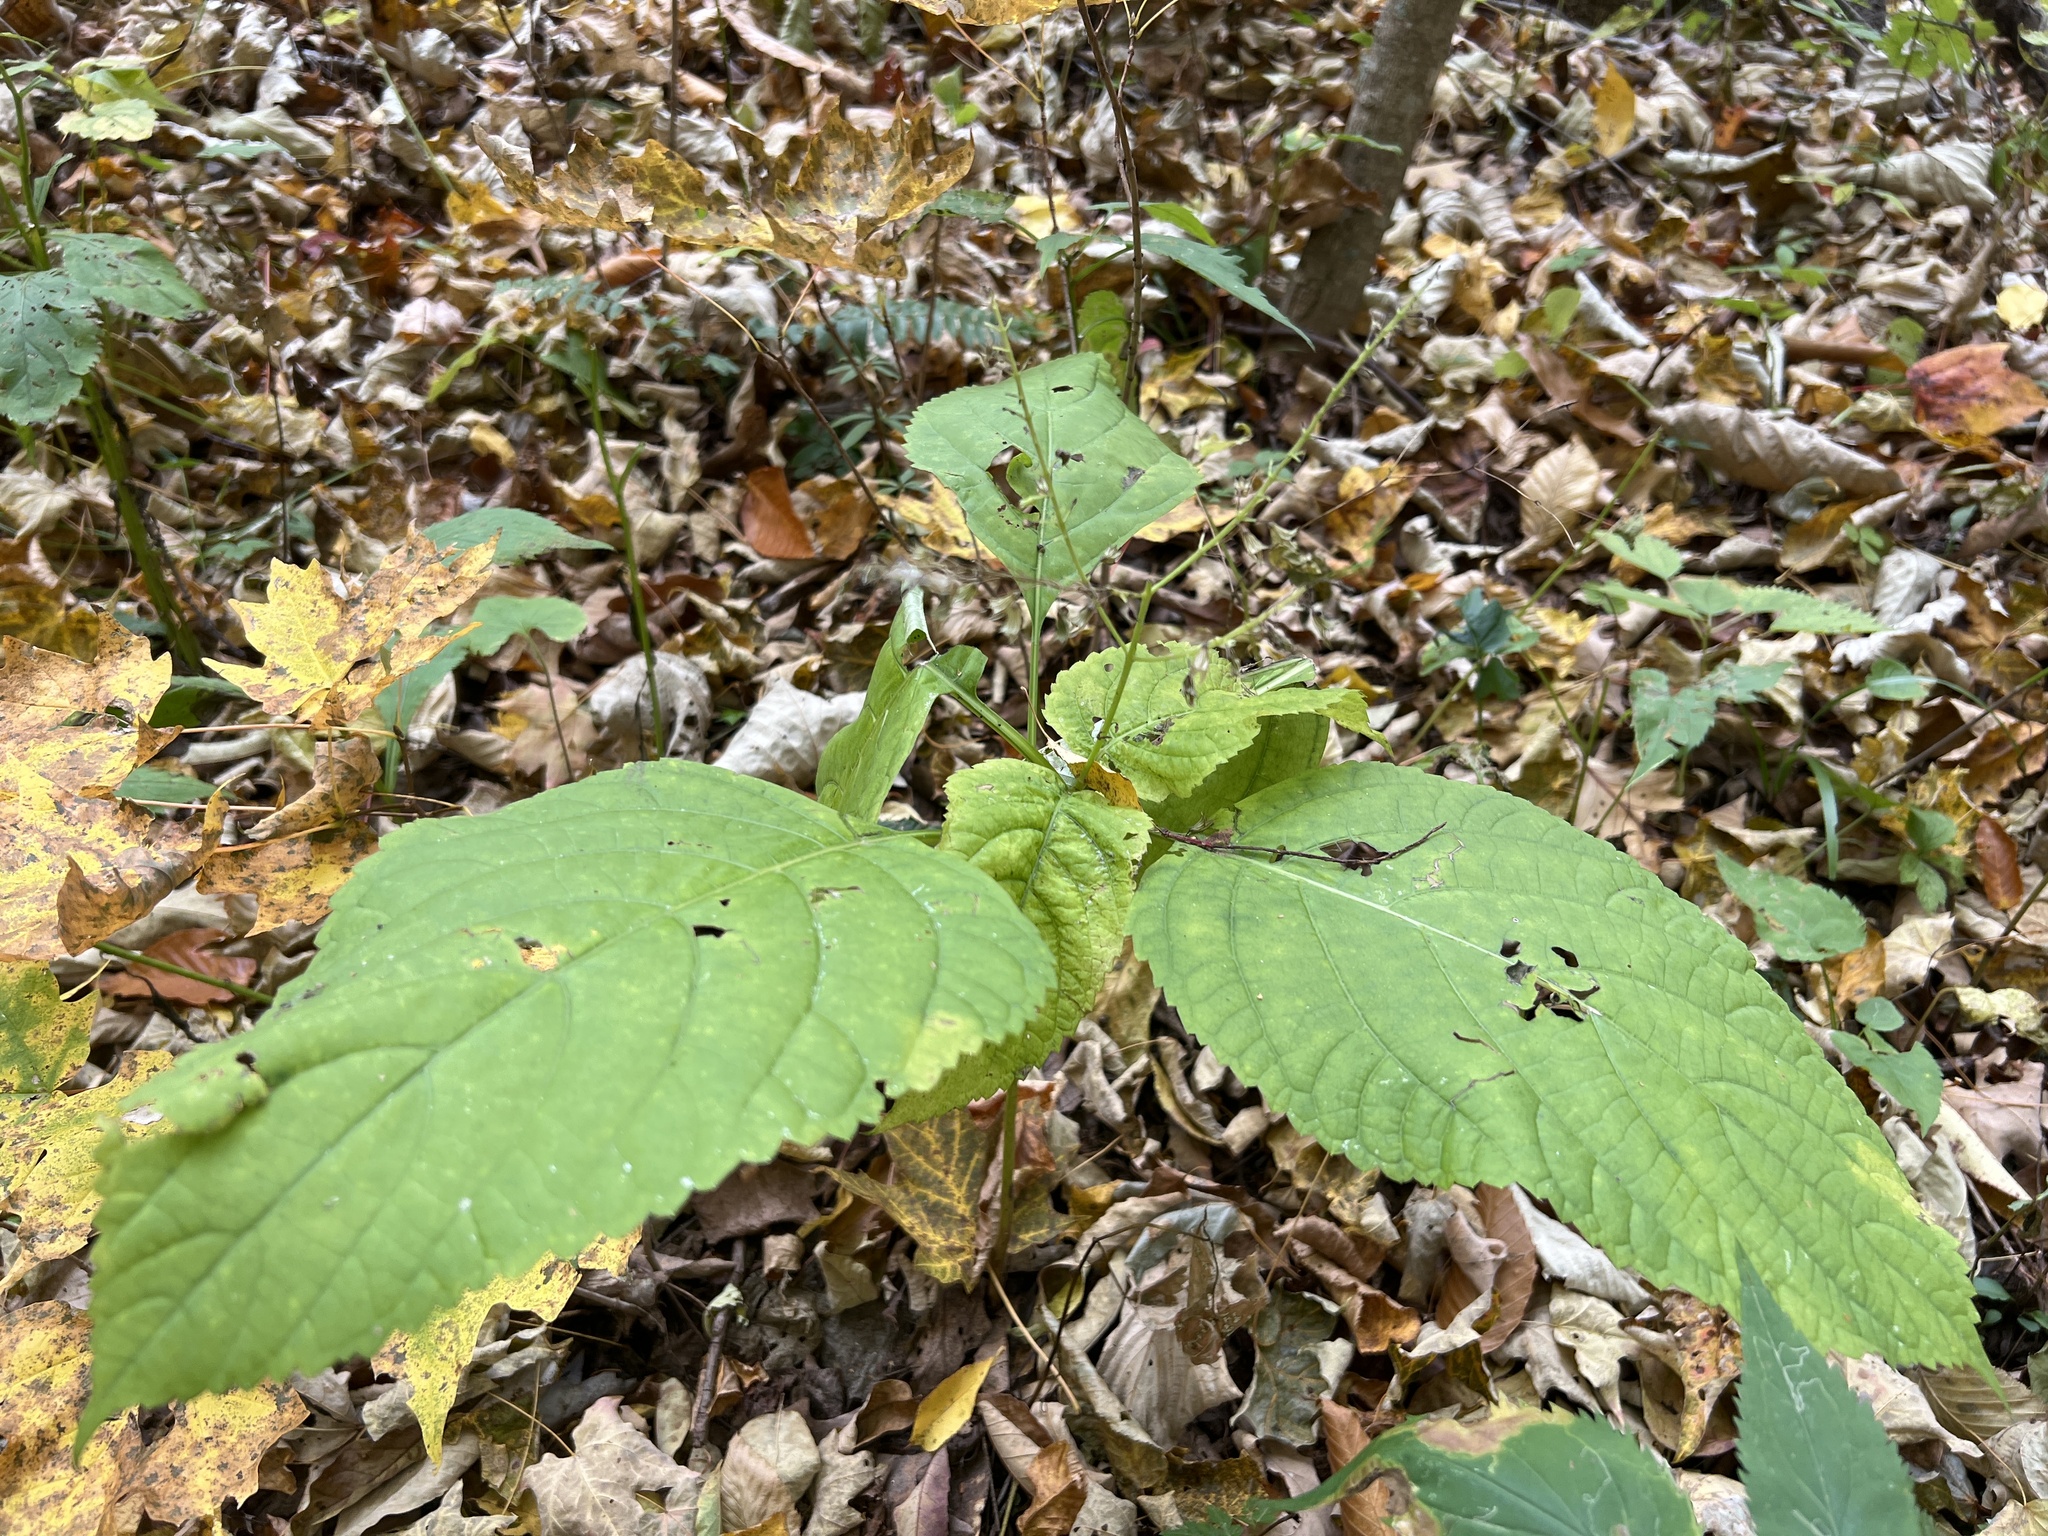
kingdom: Plantae
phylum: Tracheophyta
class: Magnoliopsida
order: Lamiales
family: Lamiaceae
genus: Collinsonia
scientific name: Collinsonia canadensis
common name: Northern horsebalm
